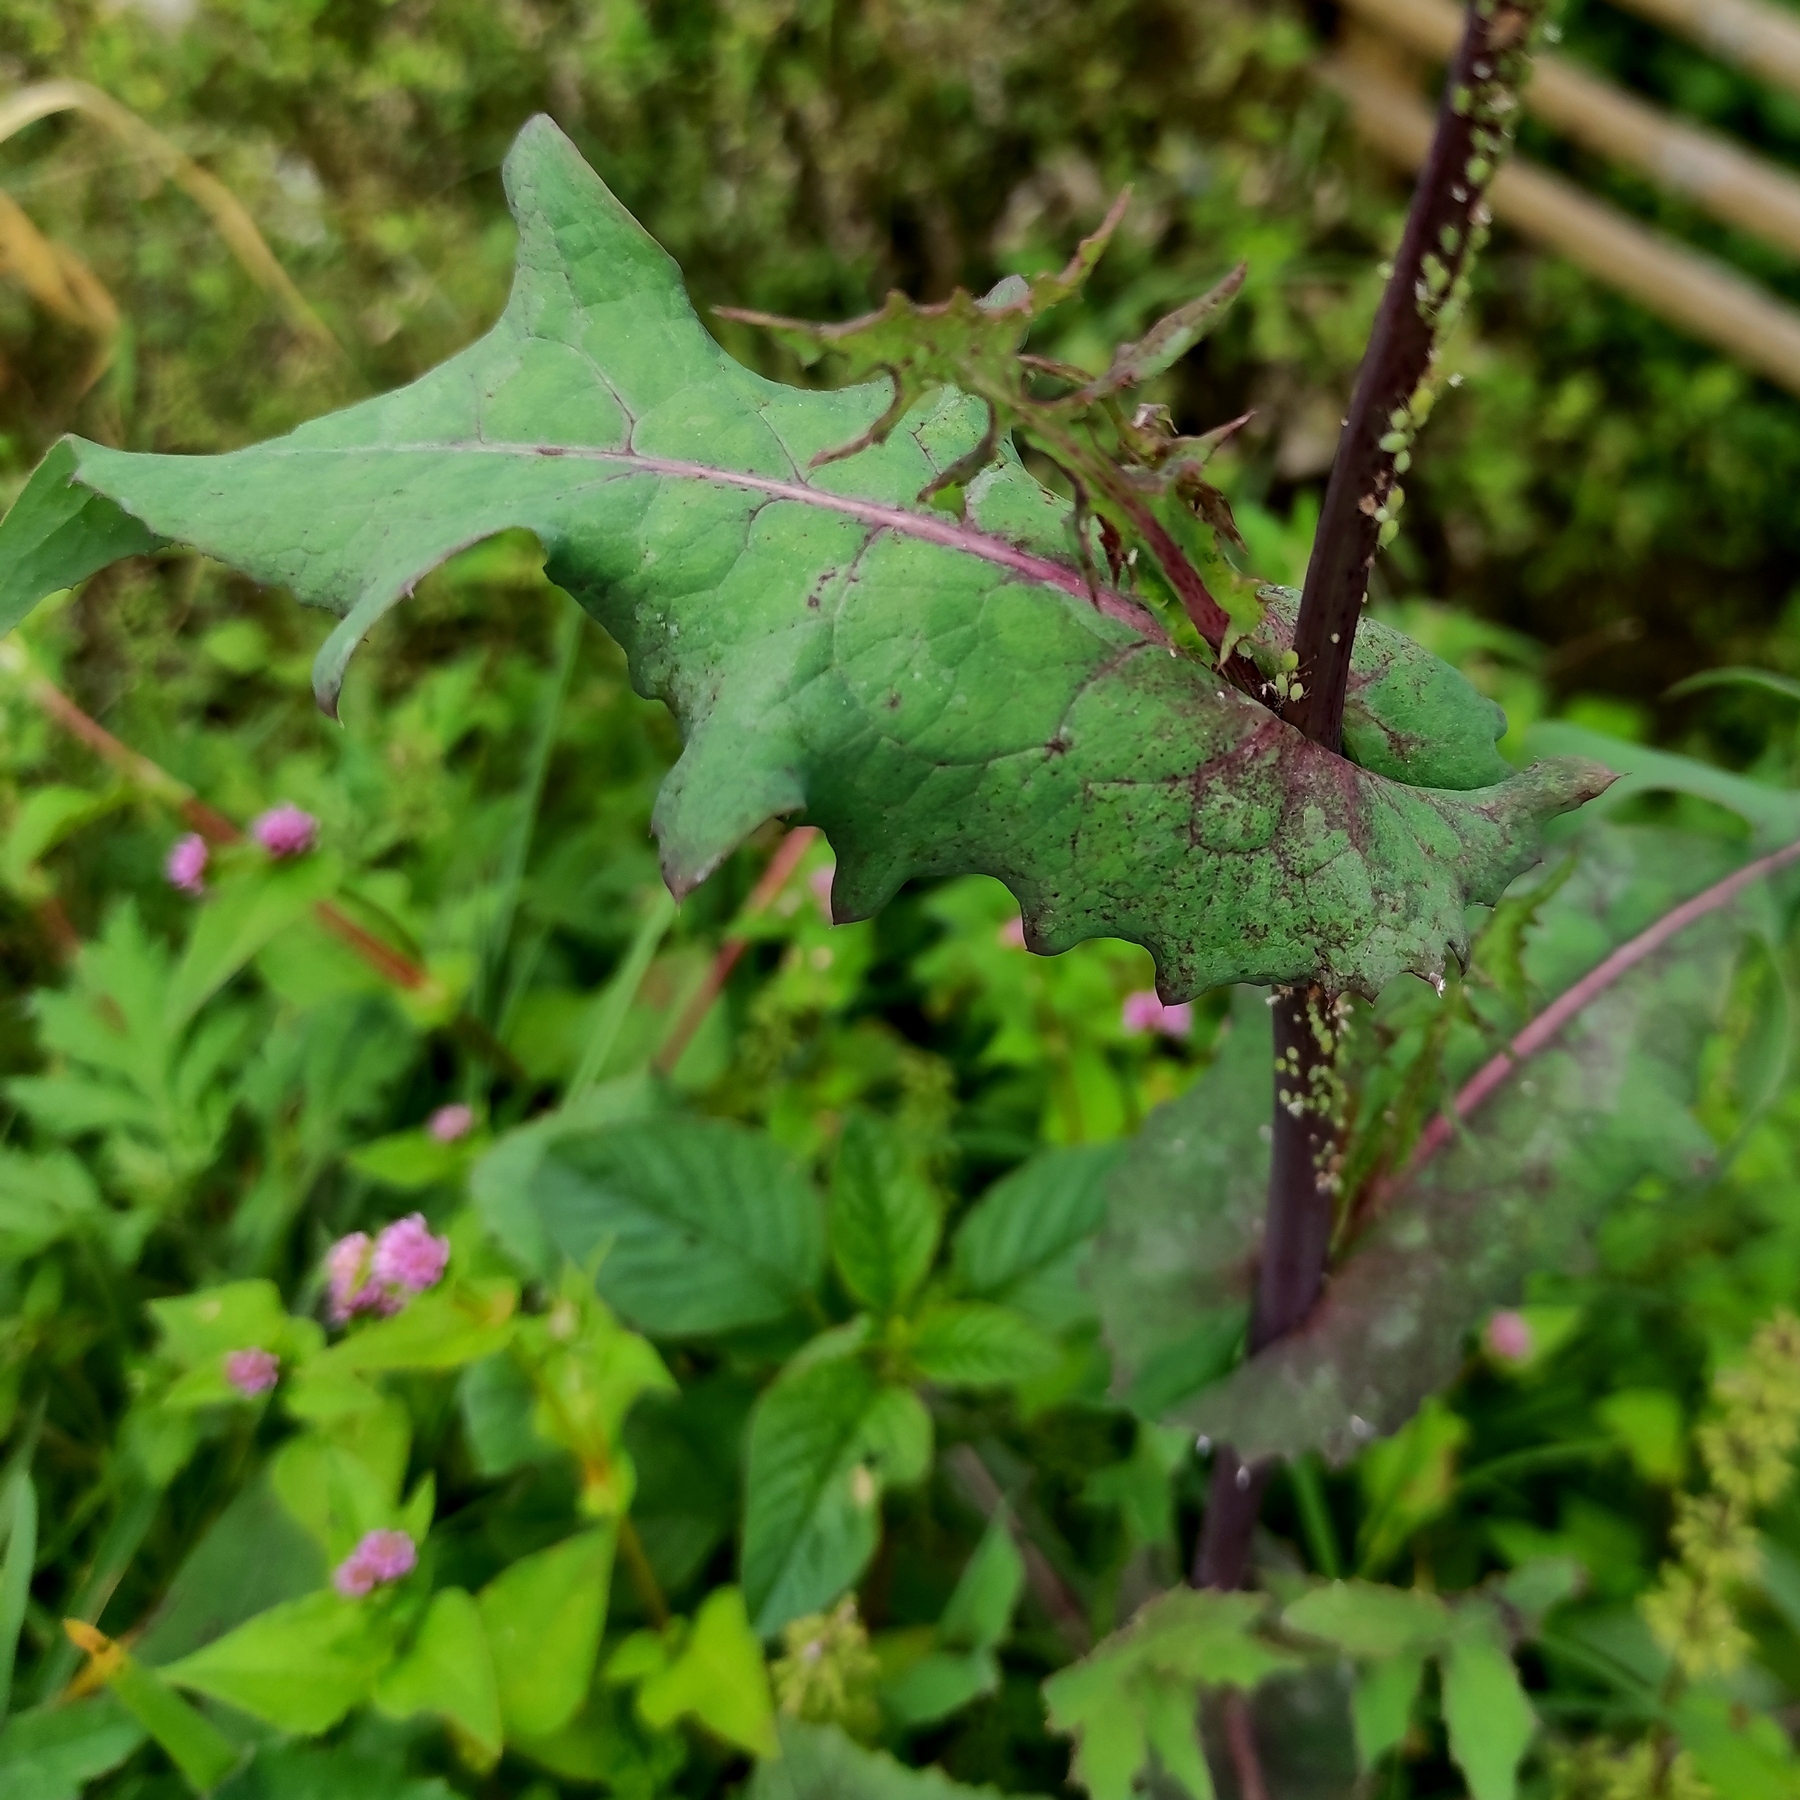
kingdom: Plantae
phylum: Tracheophyta
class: Magnoliopsida
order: Asterales
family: Asteraceae
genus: Sonchus
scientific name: Sonchus oleraceus
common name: Common sowthistle
